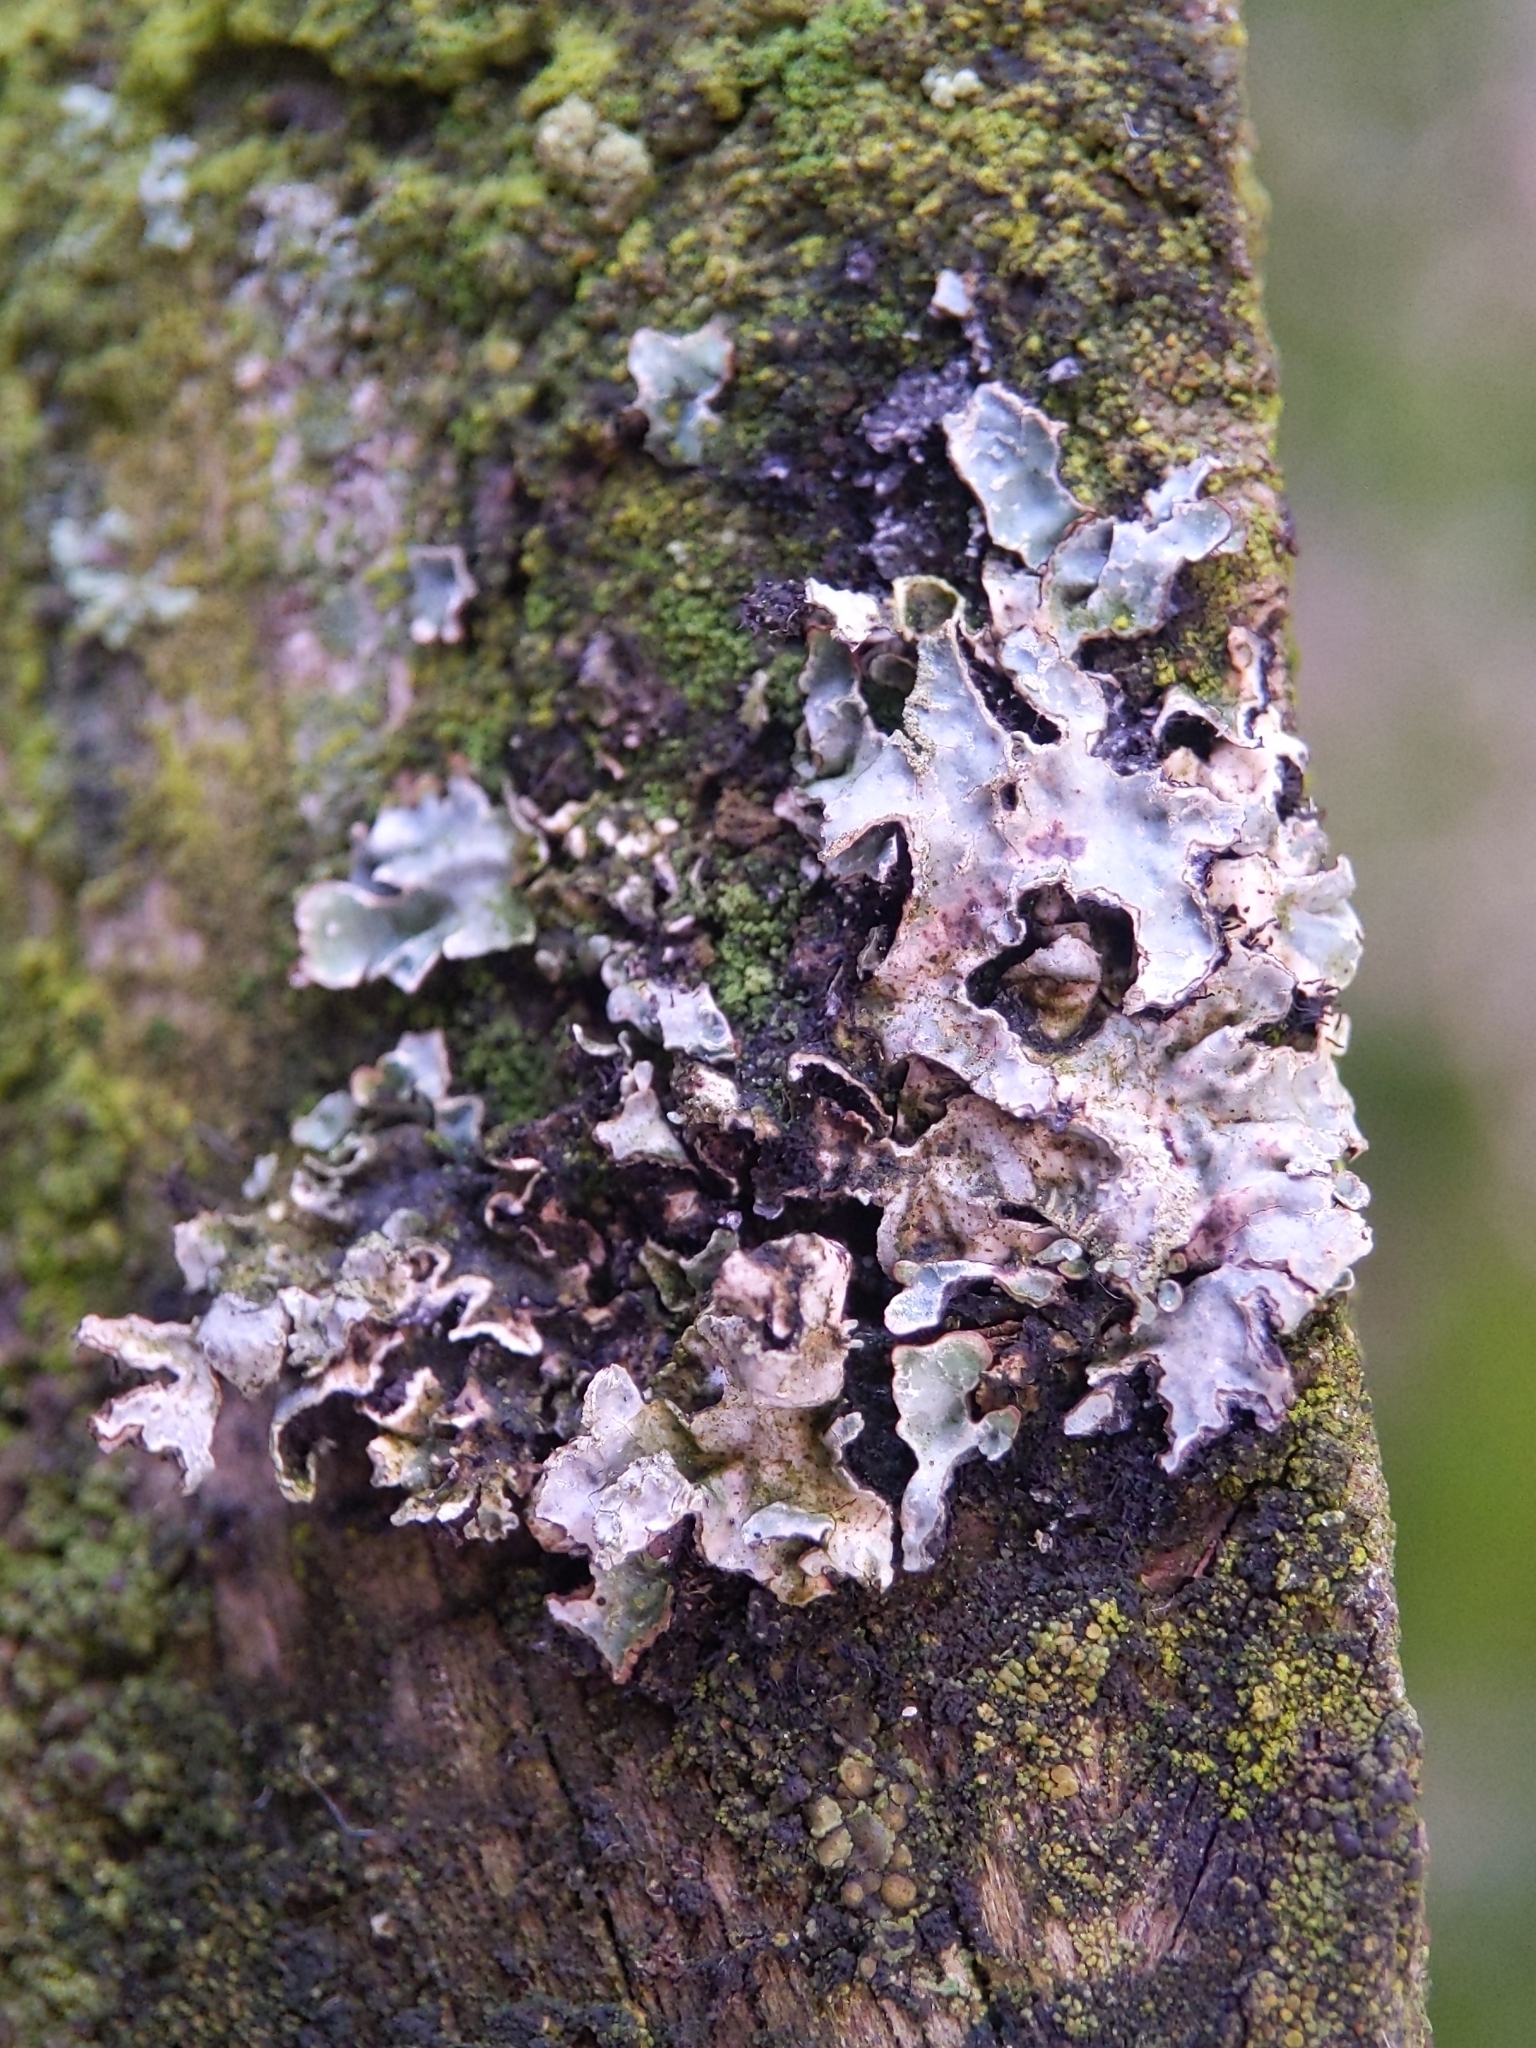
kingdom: Fungi
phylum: Ascomycota
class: Lecanoromycetes
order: Lecanorales
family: Parmeliaceae
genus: Parmelia
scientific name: Parmelia sulcata
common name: Netted shield lichen
